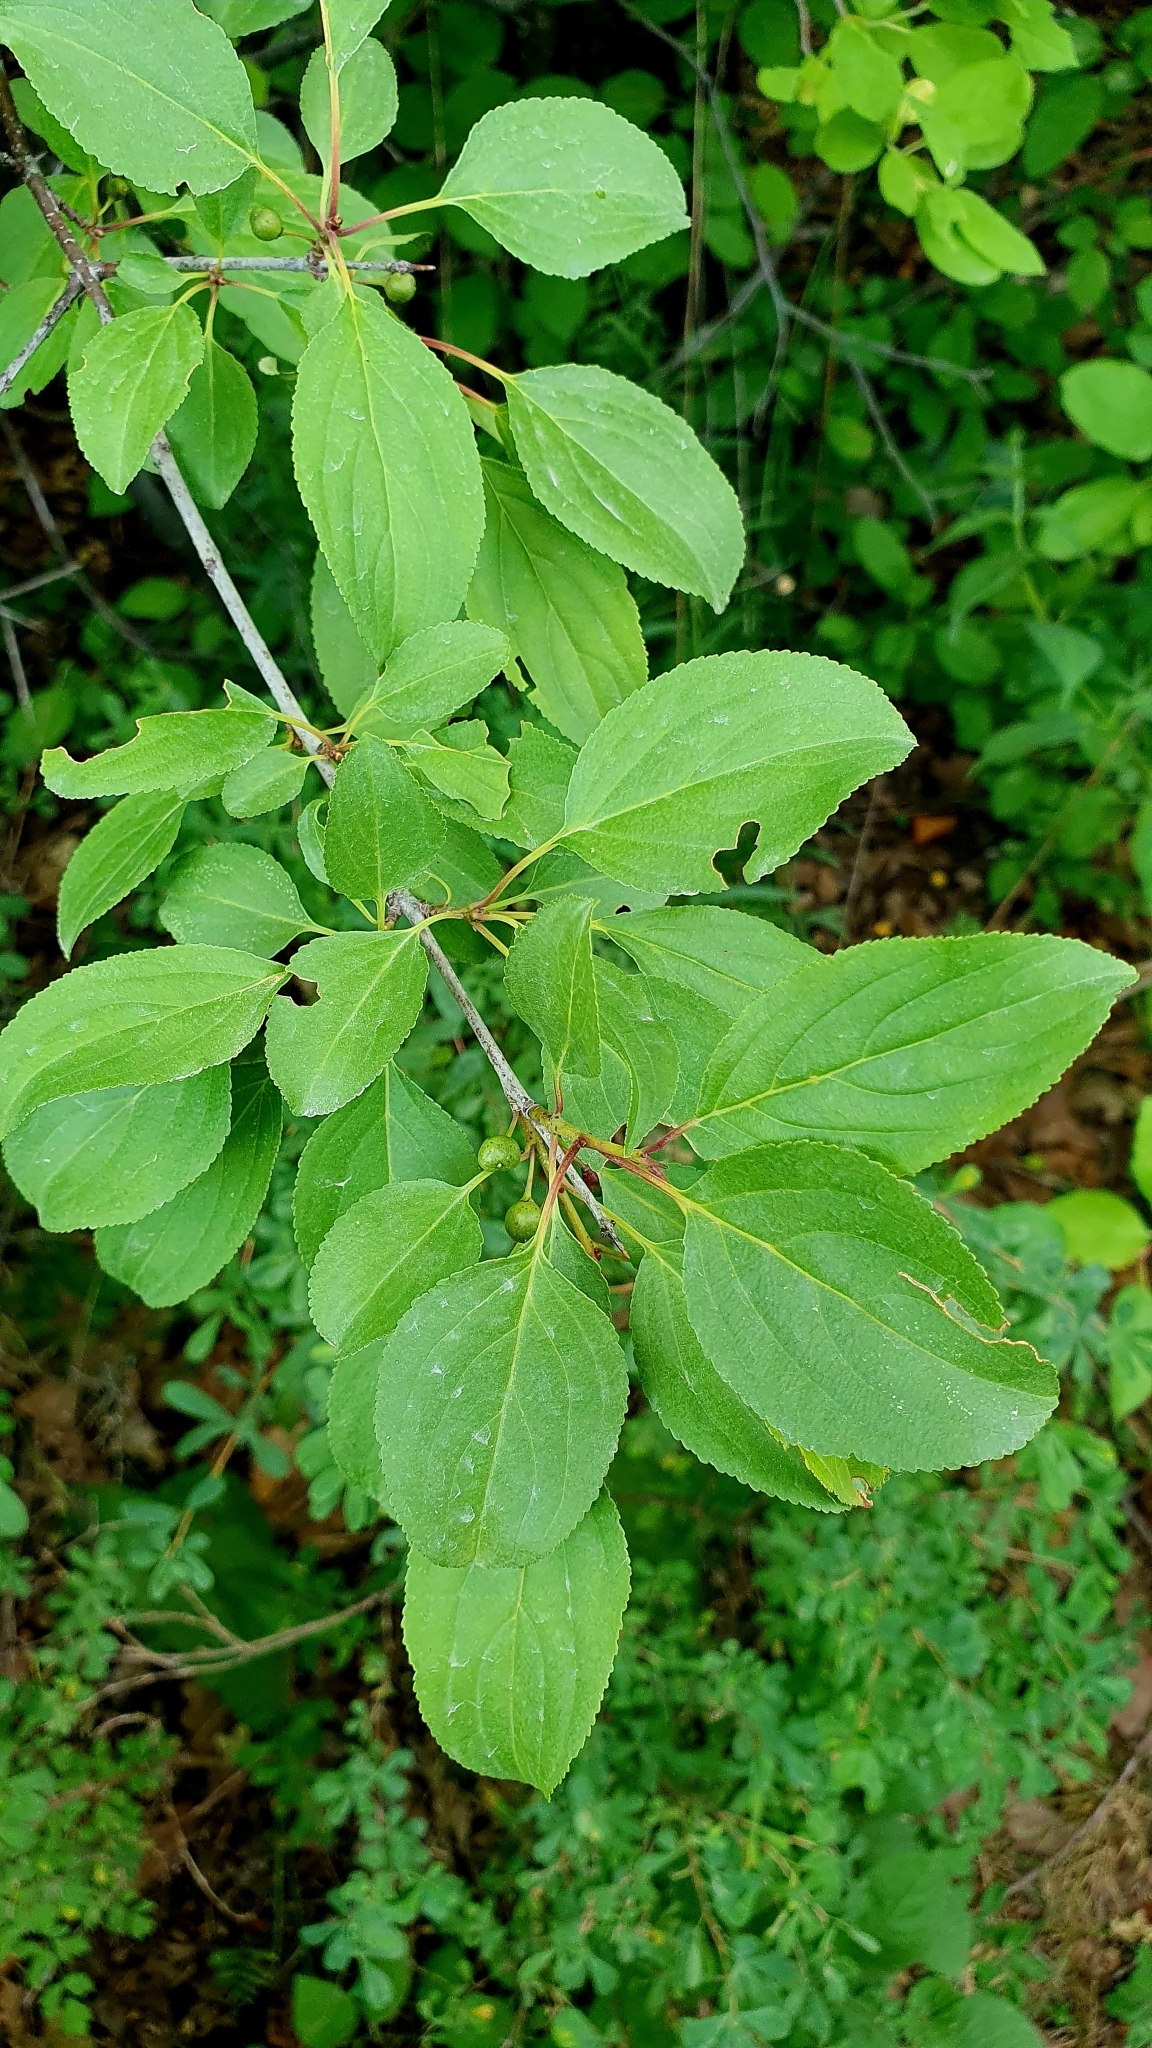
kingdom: Plantae
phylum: Tracheophyta
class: Magnoliopsida
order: Rosales
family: Rhamnaceae
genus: Rhamnus
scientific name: Rhamnus cathartica
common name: Common buckthorn
